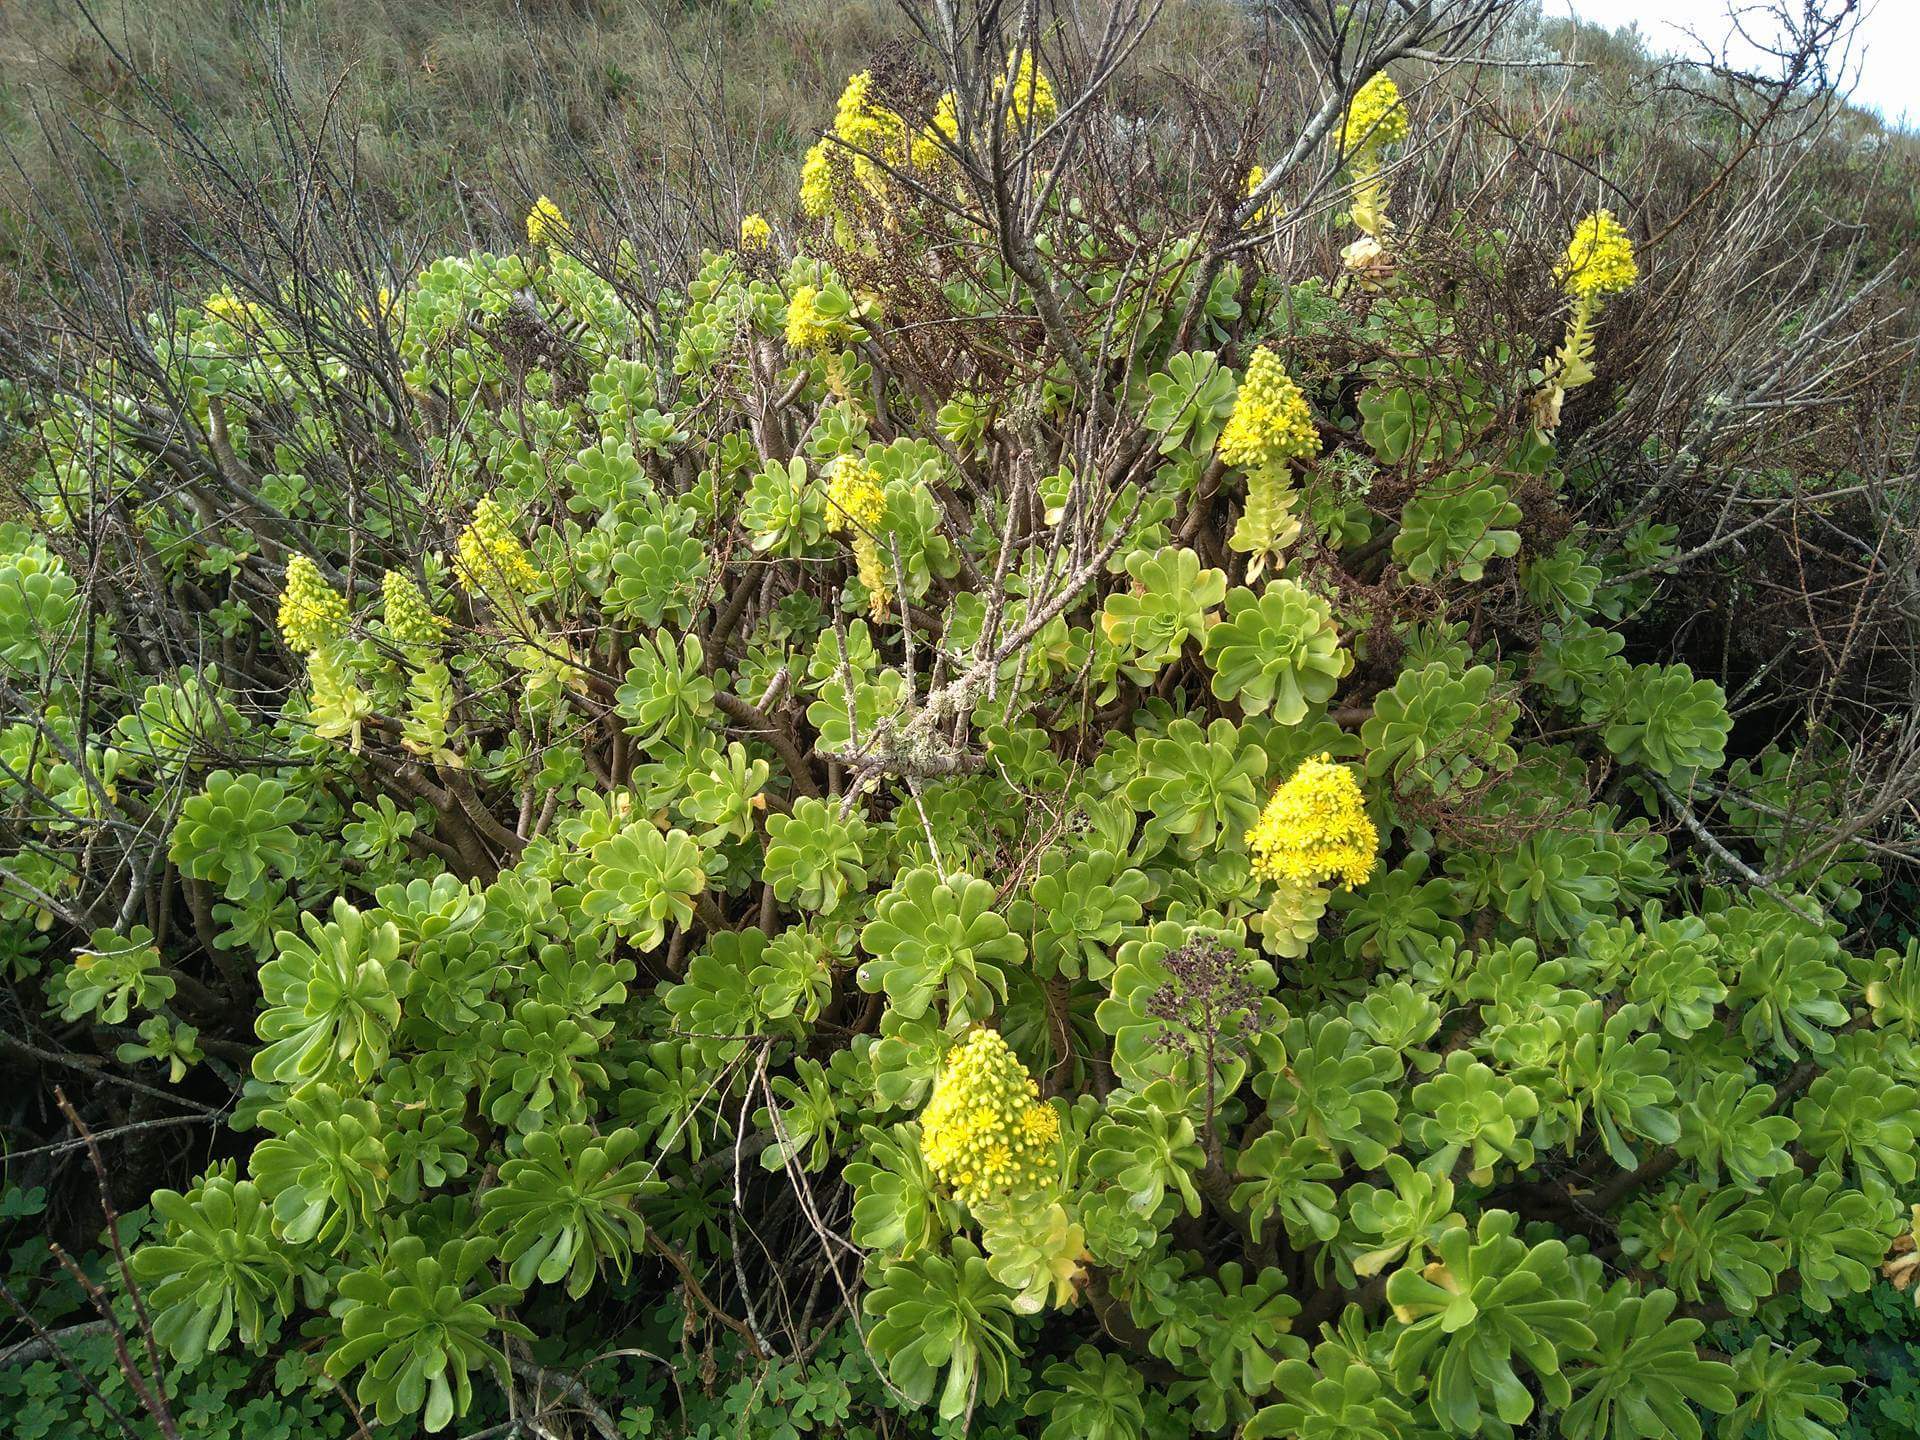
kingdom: Plantae
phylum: Tracheophyta
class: Magnoliopsida
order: Saxifragales
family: Crassulaceae
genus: Aeonium
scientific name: Aeonium arboreum
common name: Tree aeonium
